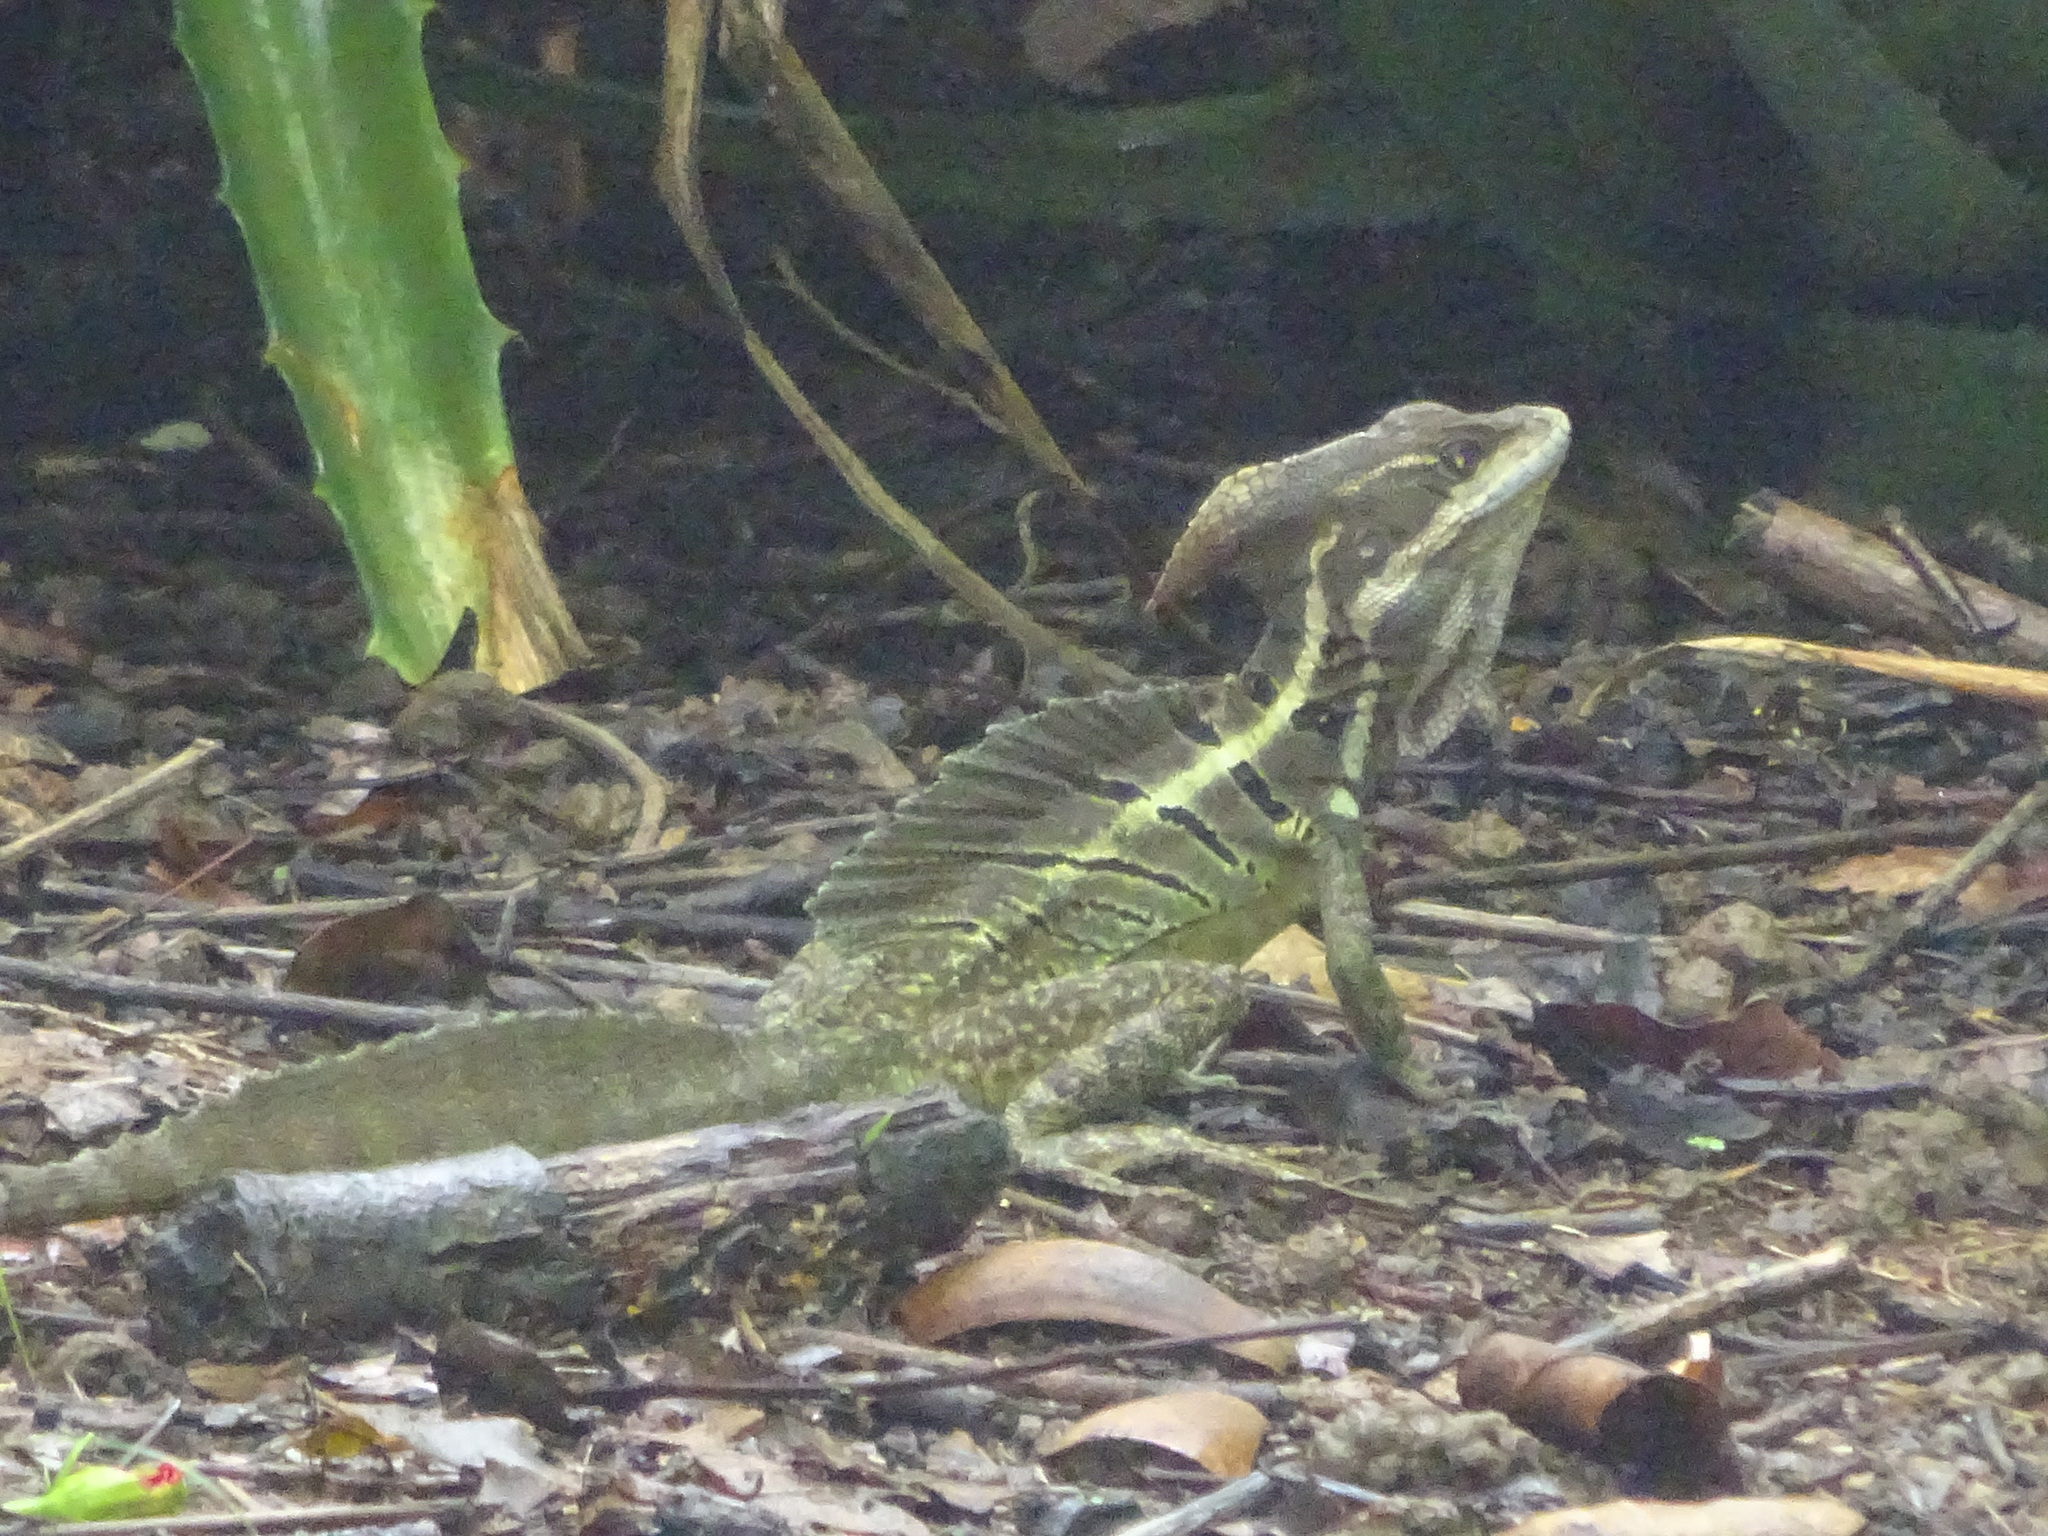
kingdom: Animalia
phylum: Chordata
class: Squamata
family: Corytophanidae
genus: Basiliscus
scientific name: Basiliscus basiliscus
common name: Common basilisk
